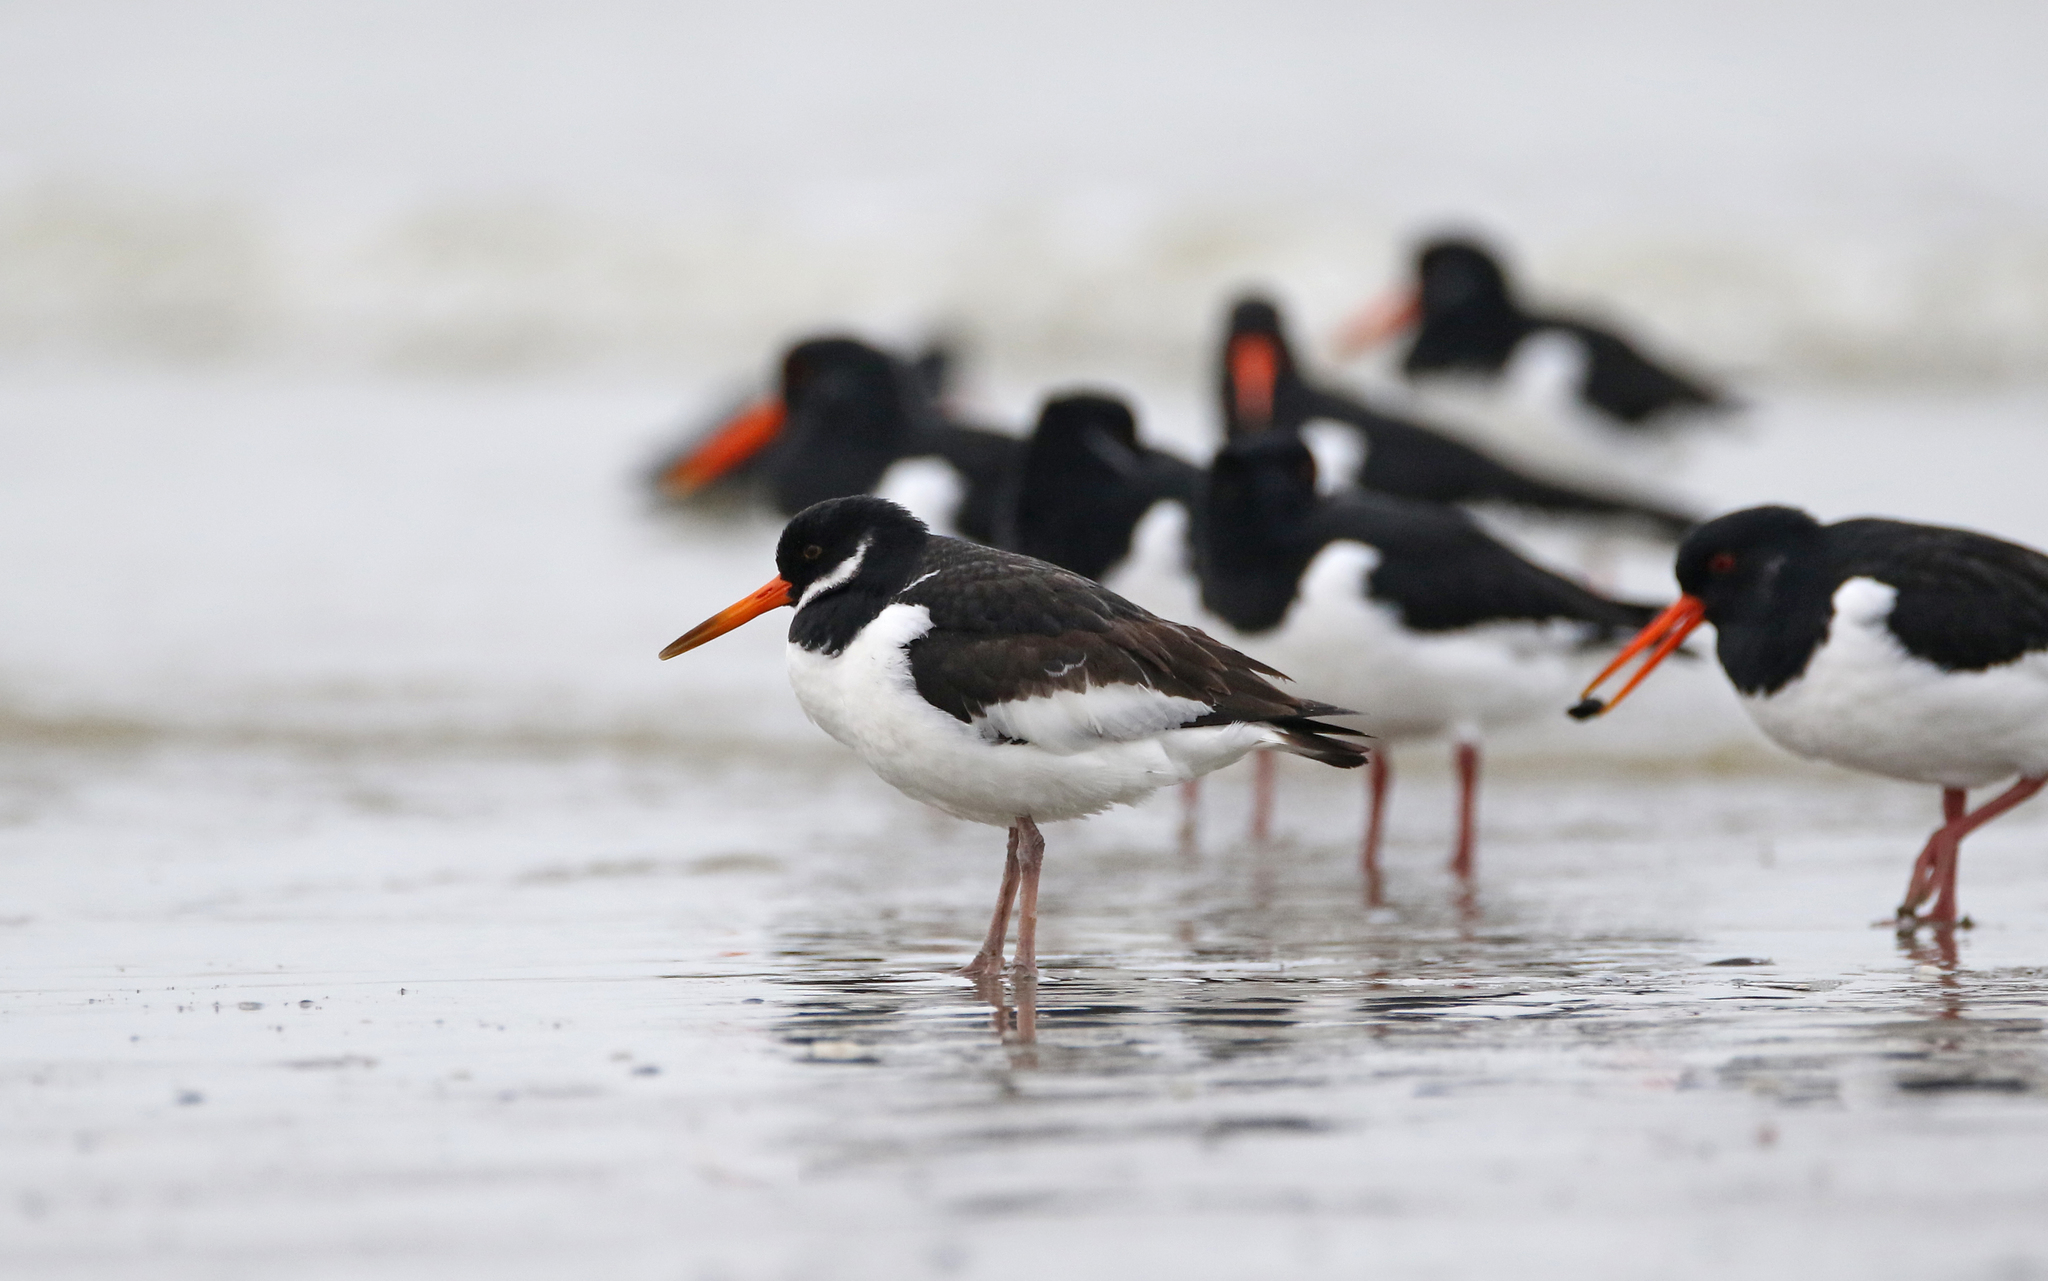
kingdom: Animalia
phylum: Chordata
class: Aves
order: Charadriiformes
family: Haematopodidae
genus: Haematopus
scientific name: Haematopus ostralegus
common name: Eurasian oystercatcher
